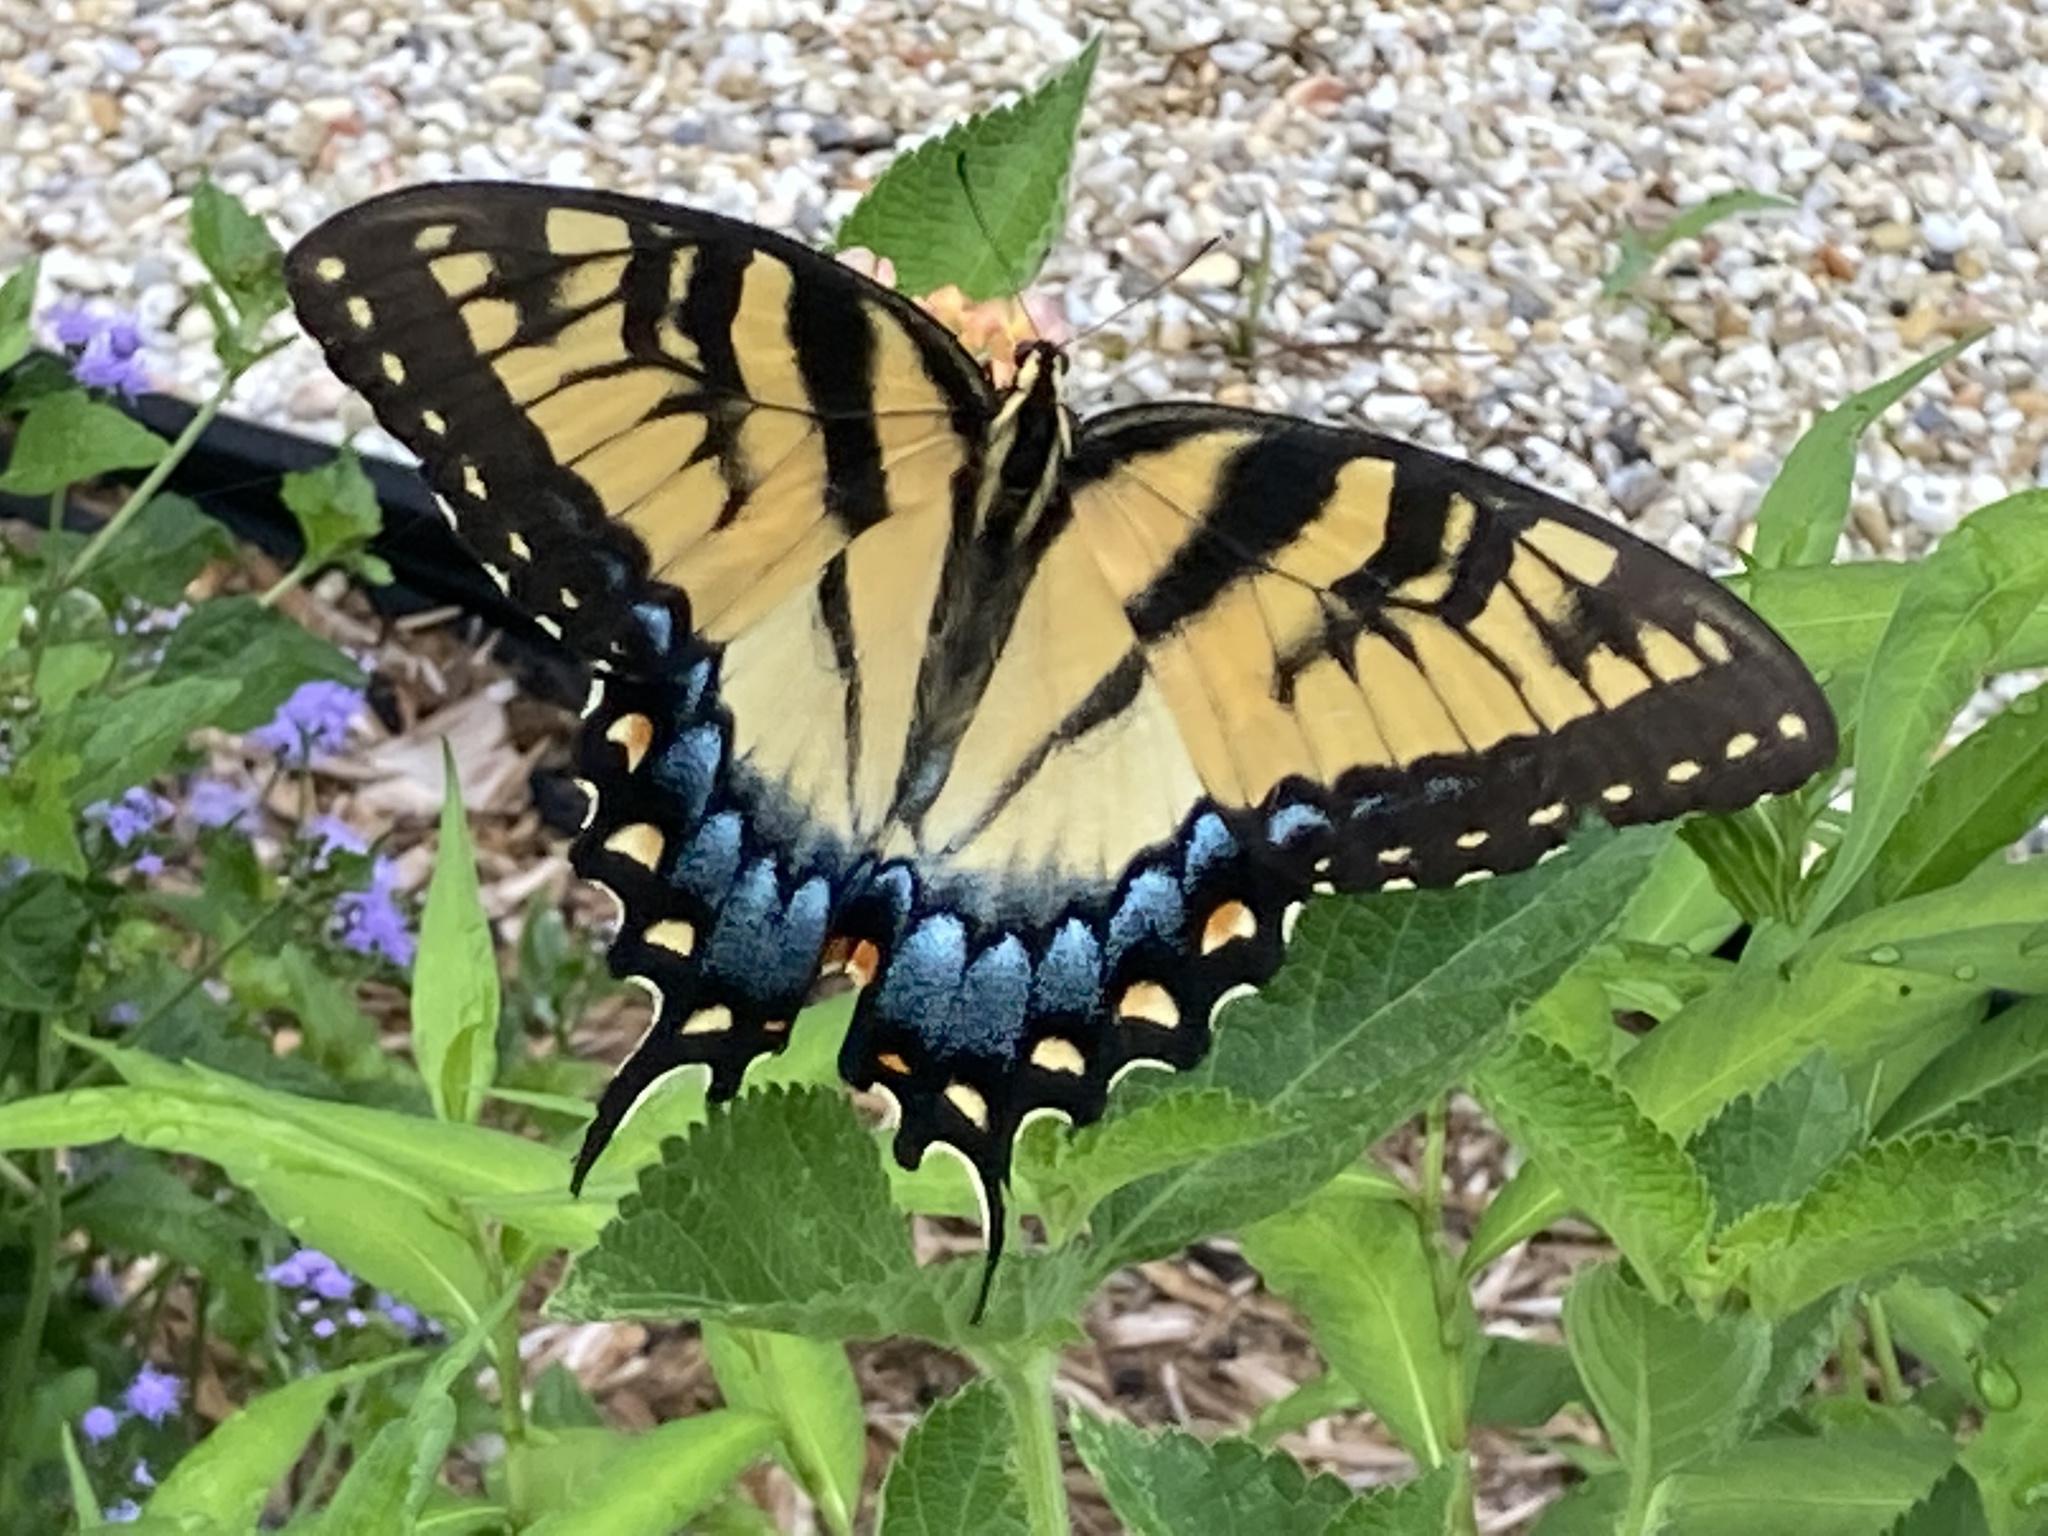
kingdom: Animalia
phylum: Arthropoda
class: Insecta
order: Lepidoptera
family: Papilionidae
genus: Papilio
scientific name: Papilio glaucus
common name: Tiger swallowtail
